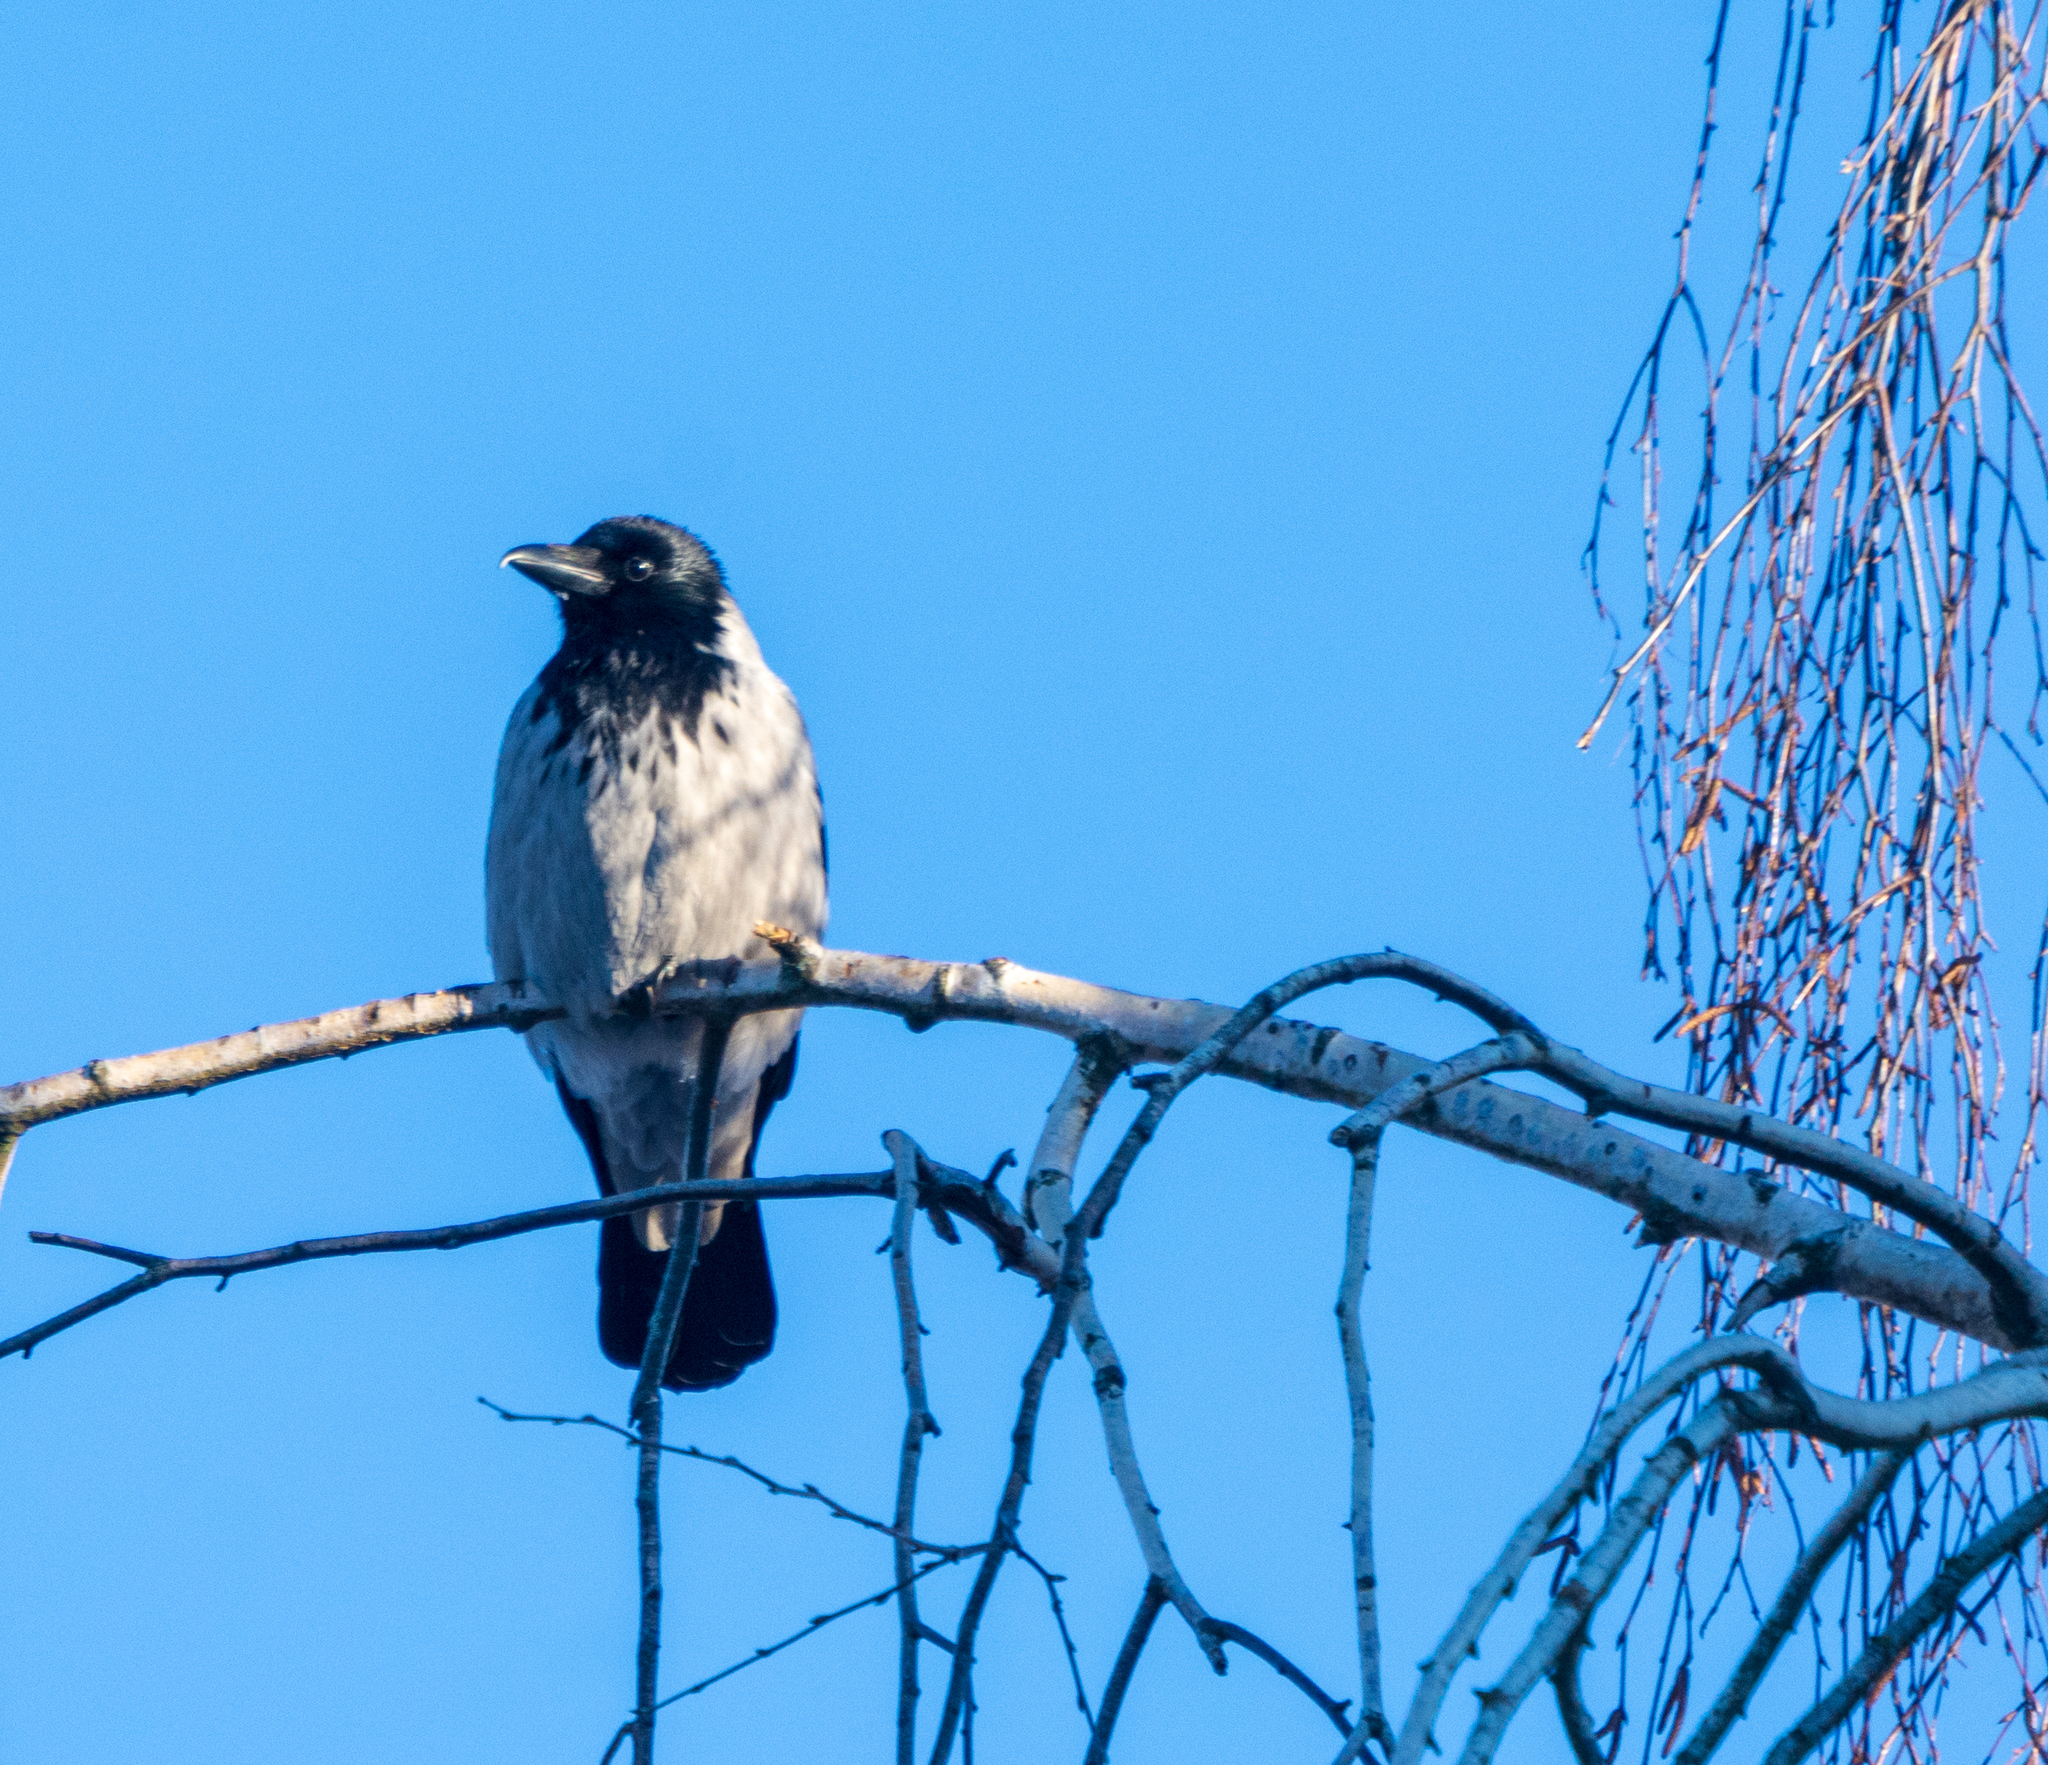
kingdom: Animalia
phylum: Chordata
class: Aves
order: Passeriformes
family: Corvidae
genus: Corvus
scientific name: Corvus cornix
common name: Hooded crow
